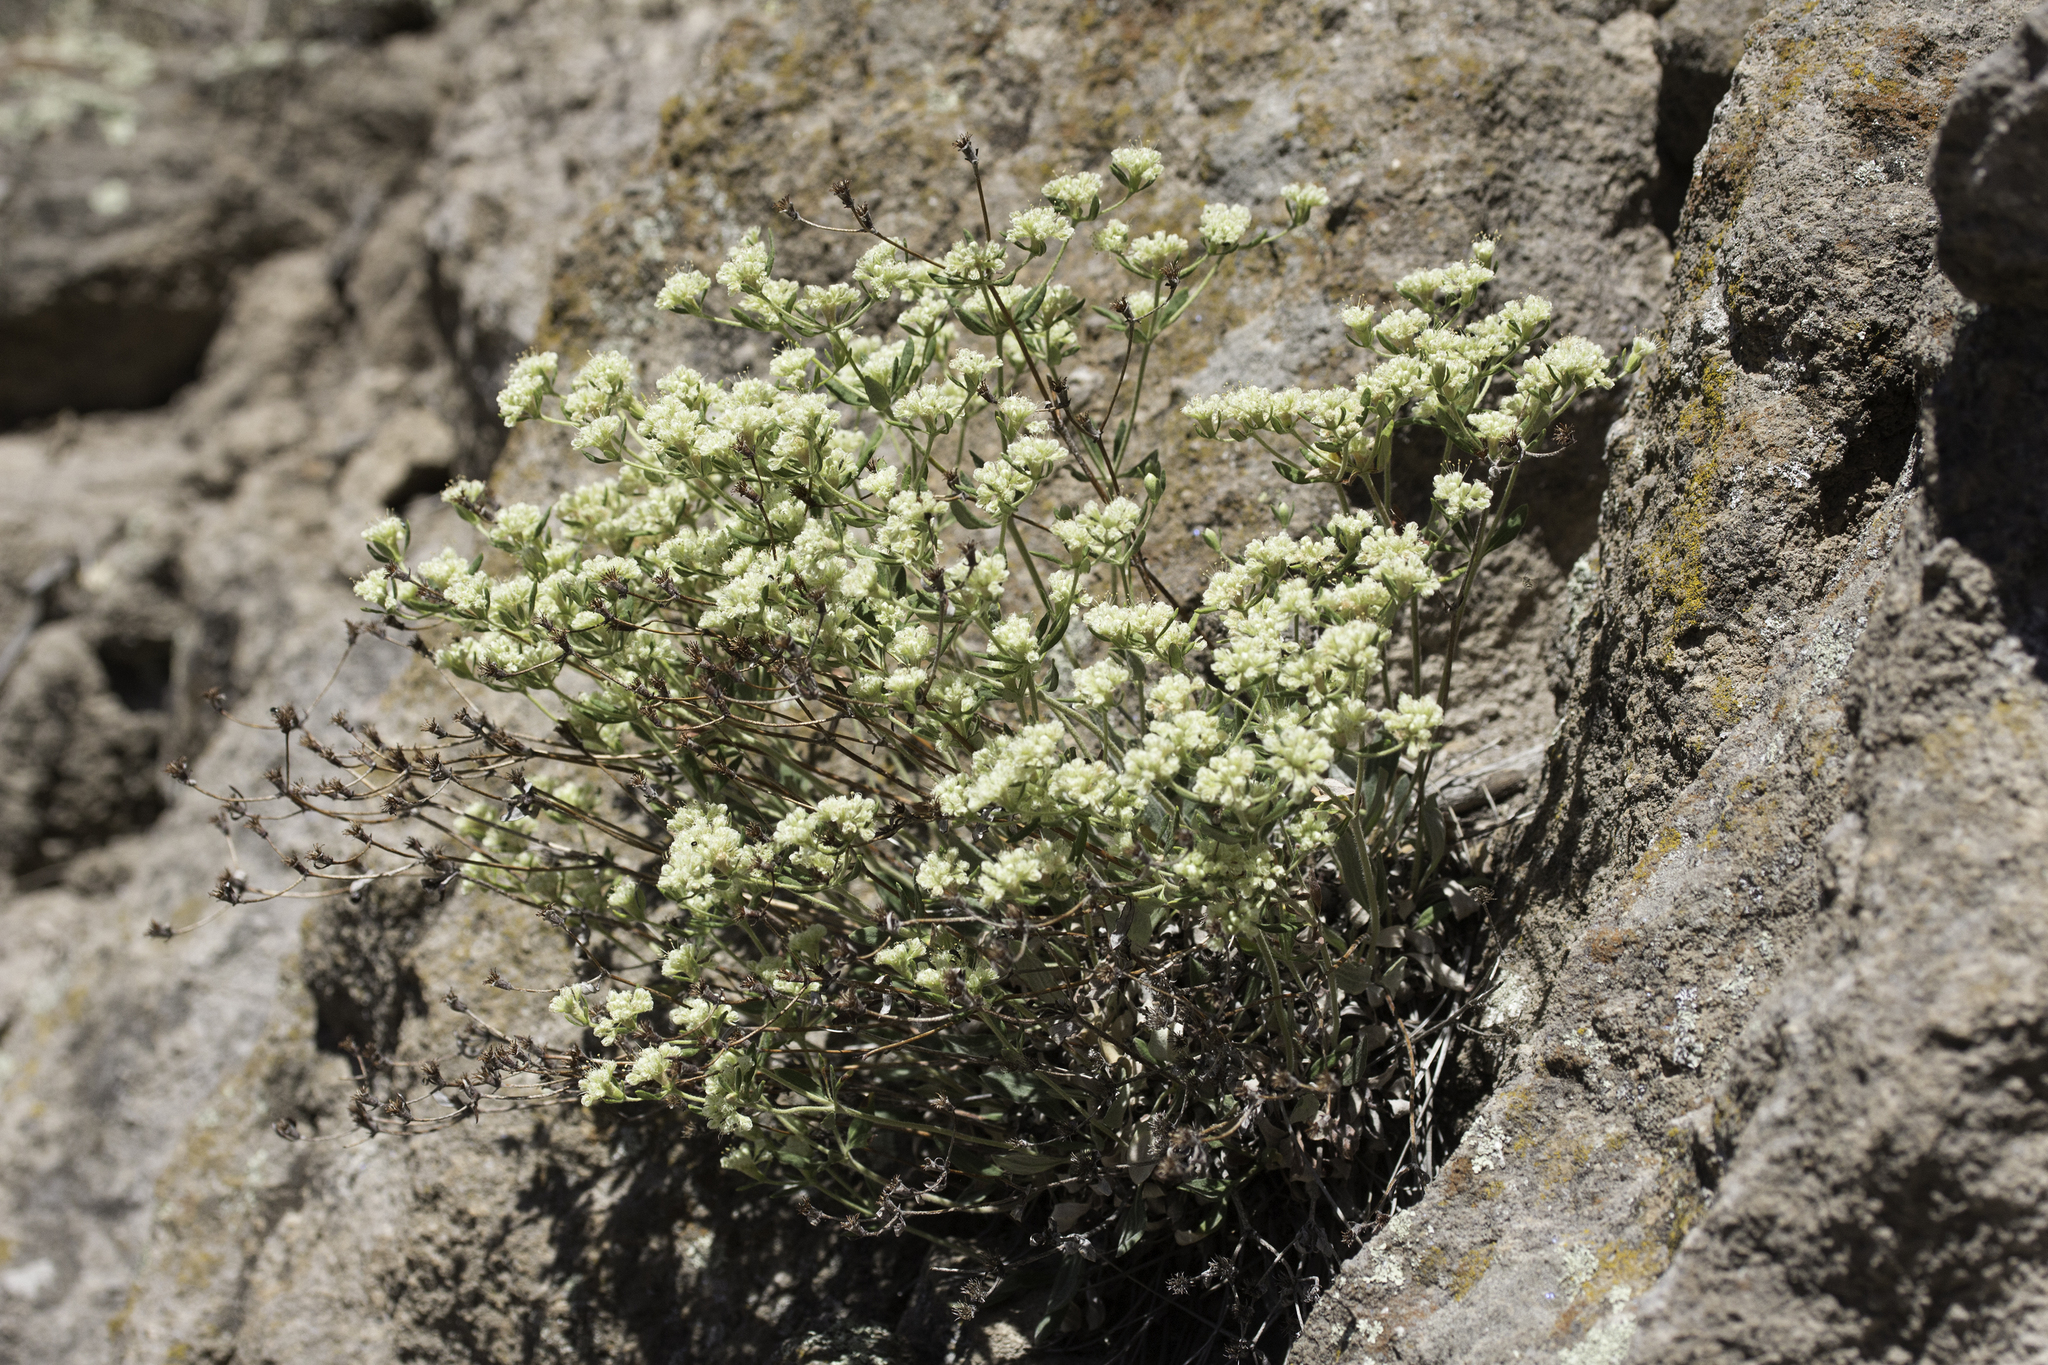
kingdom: Plantae
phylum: Tracheophyta
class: Magnoliopsida
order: Caryophyllales
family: Polygonaceae
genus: Eriogonum
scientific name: Eriogonum jamesii
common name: Antelope-sage
